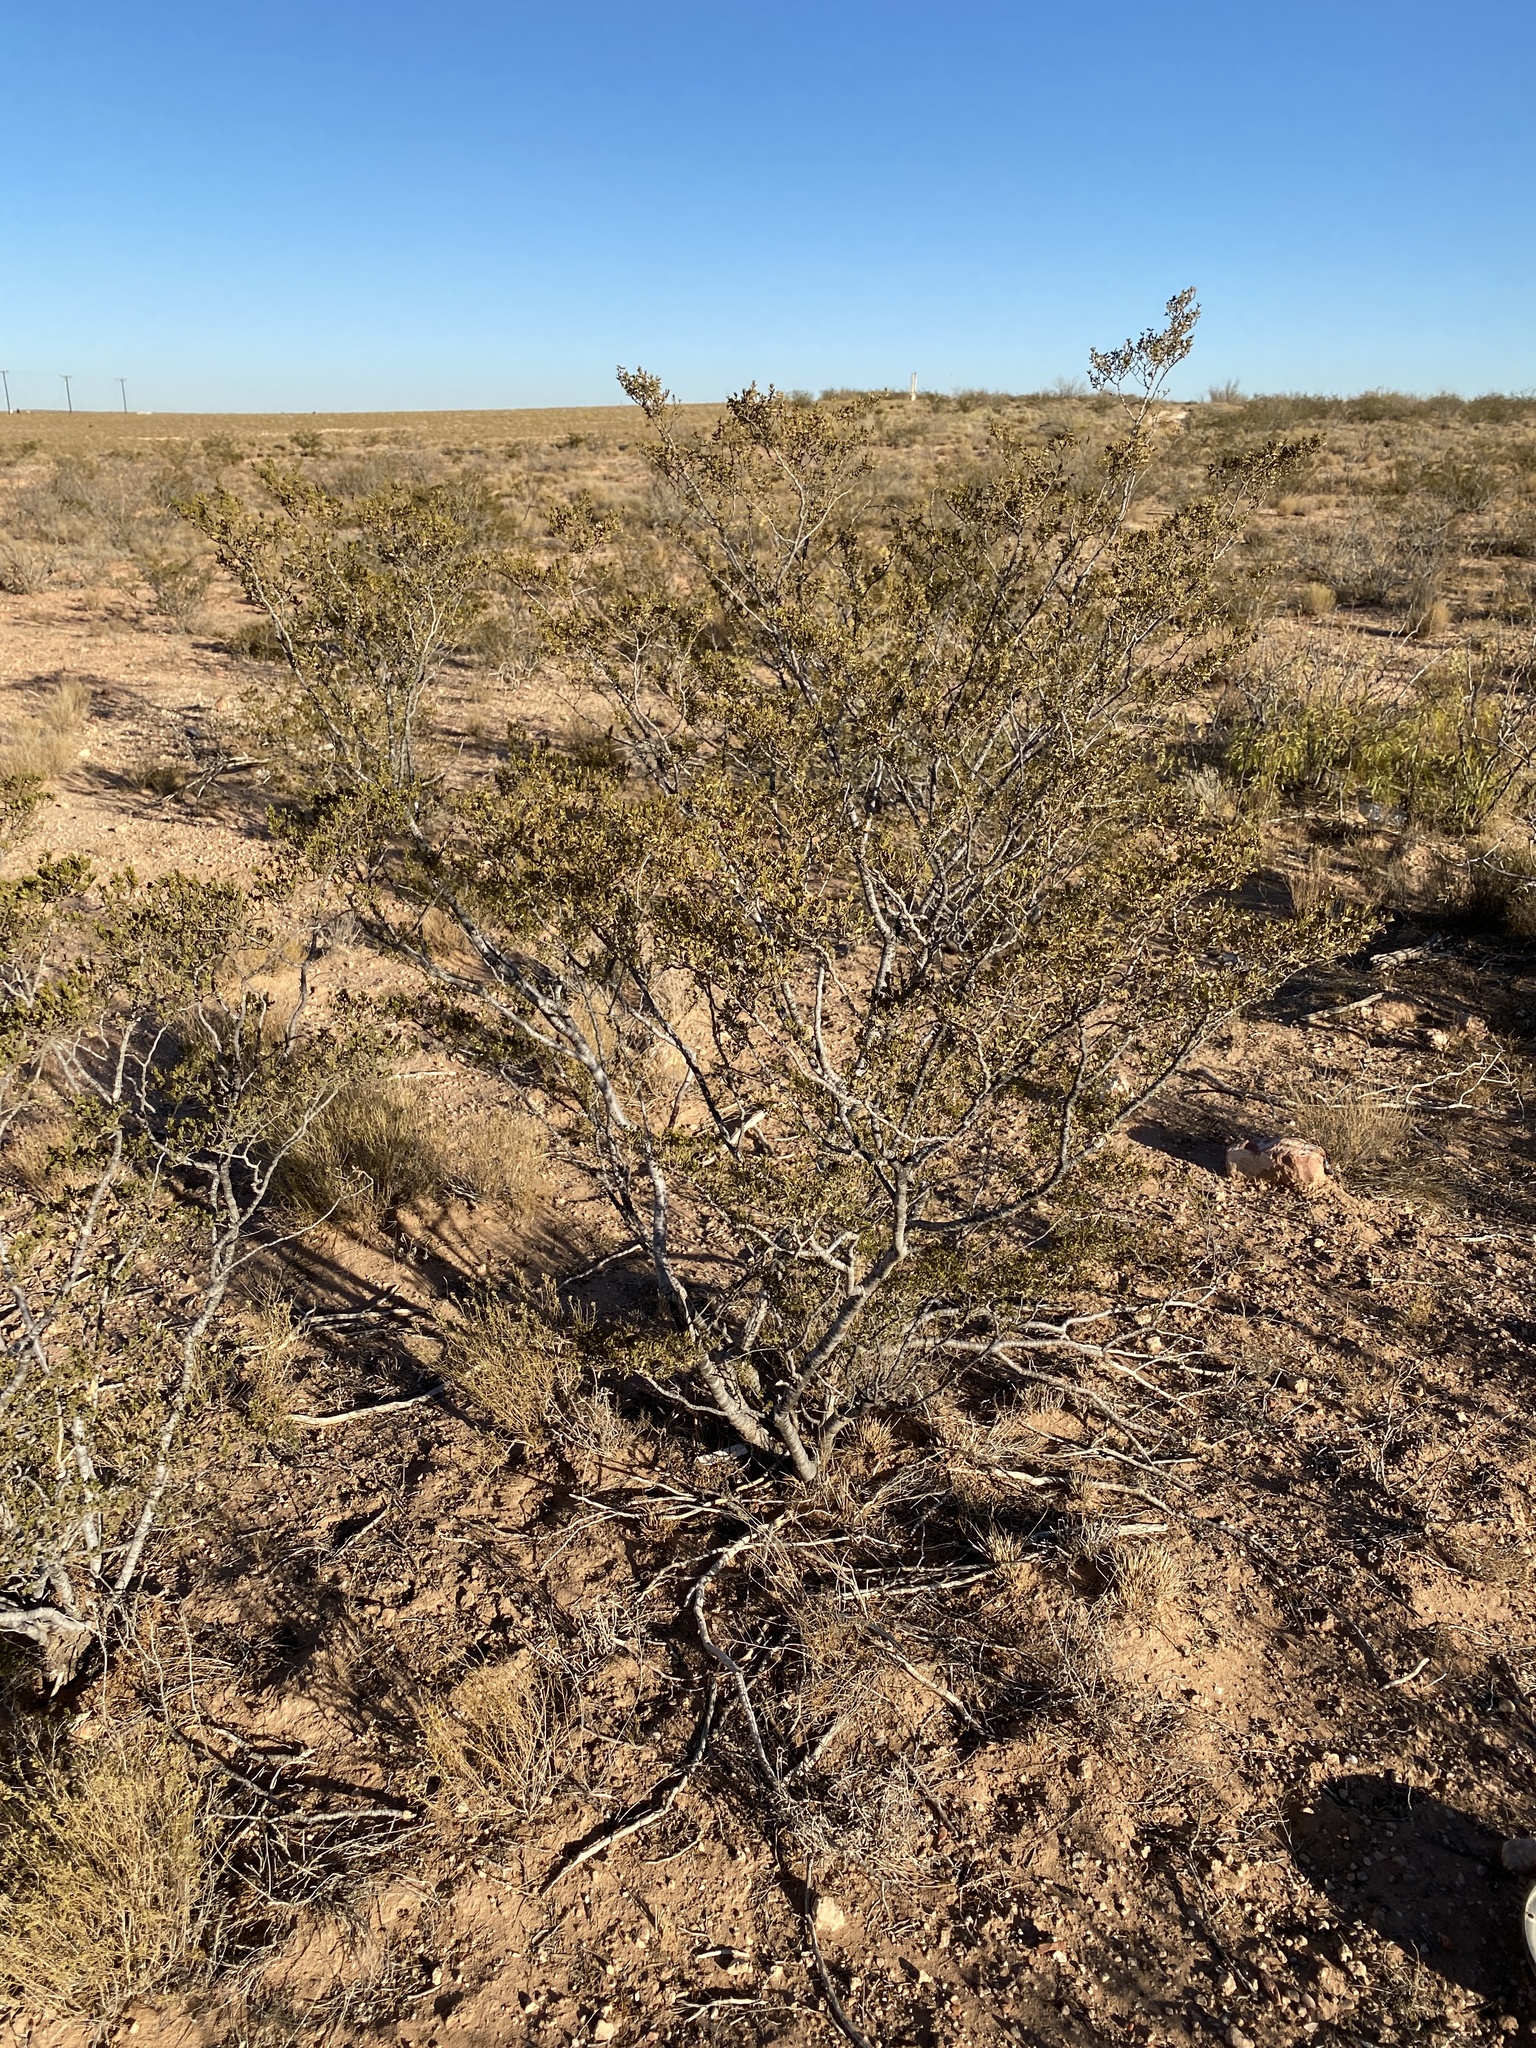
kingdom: Plantae
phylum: Tracheophyta
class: Magnoliopsida
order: Zygophyllales
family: Zygophyllaceae
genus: Larrea
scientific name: Larrea tridentata
